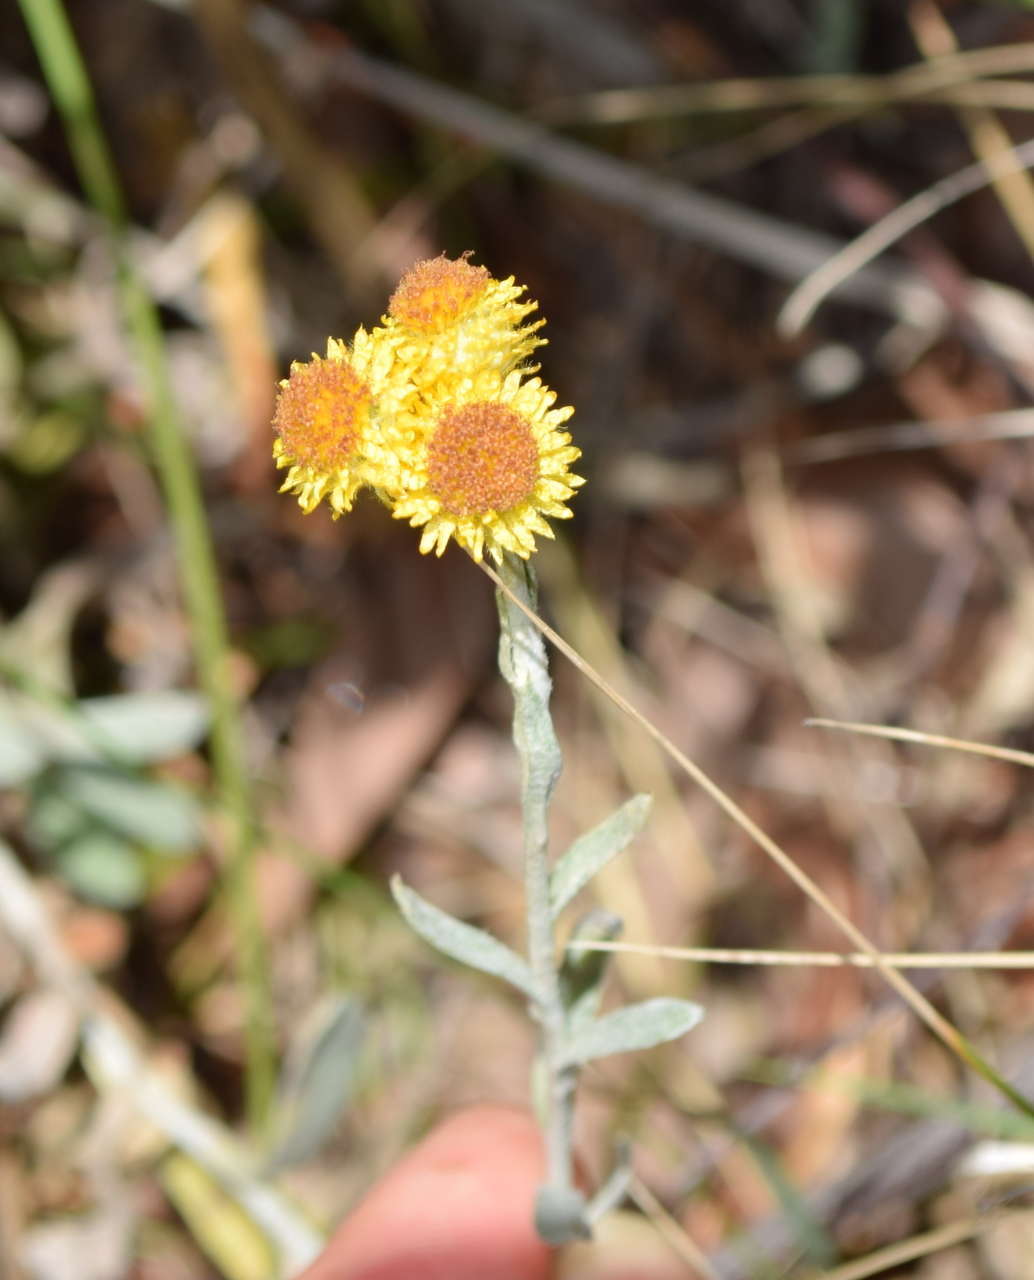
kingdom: Plantae
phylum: Tracheophyta
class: Magnoliopsida
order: Asterales
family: Asteraceae
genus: Chrysocephalum
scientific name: Chrysocephalum apiculatum
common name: Common everlasting
